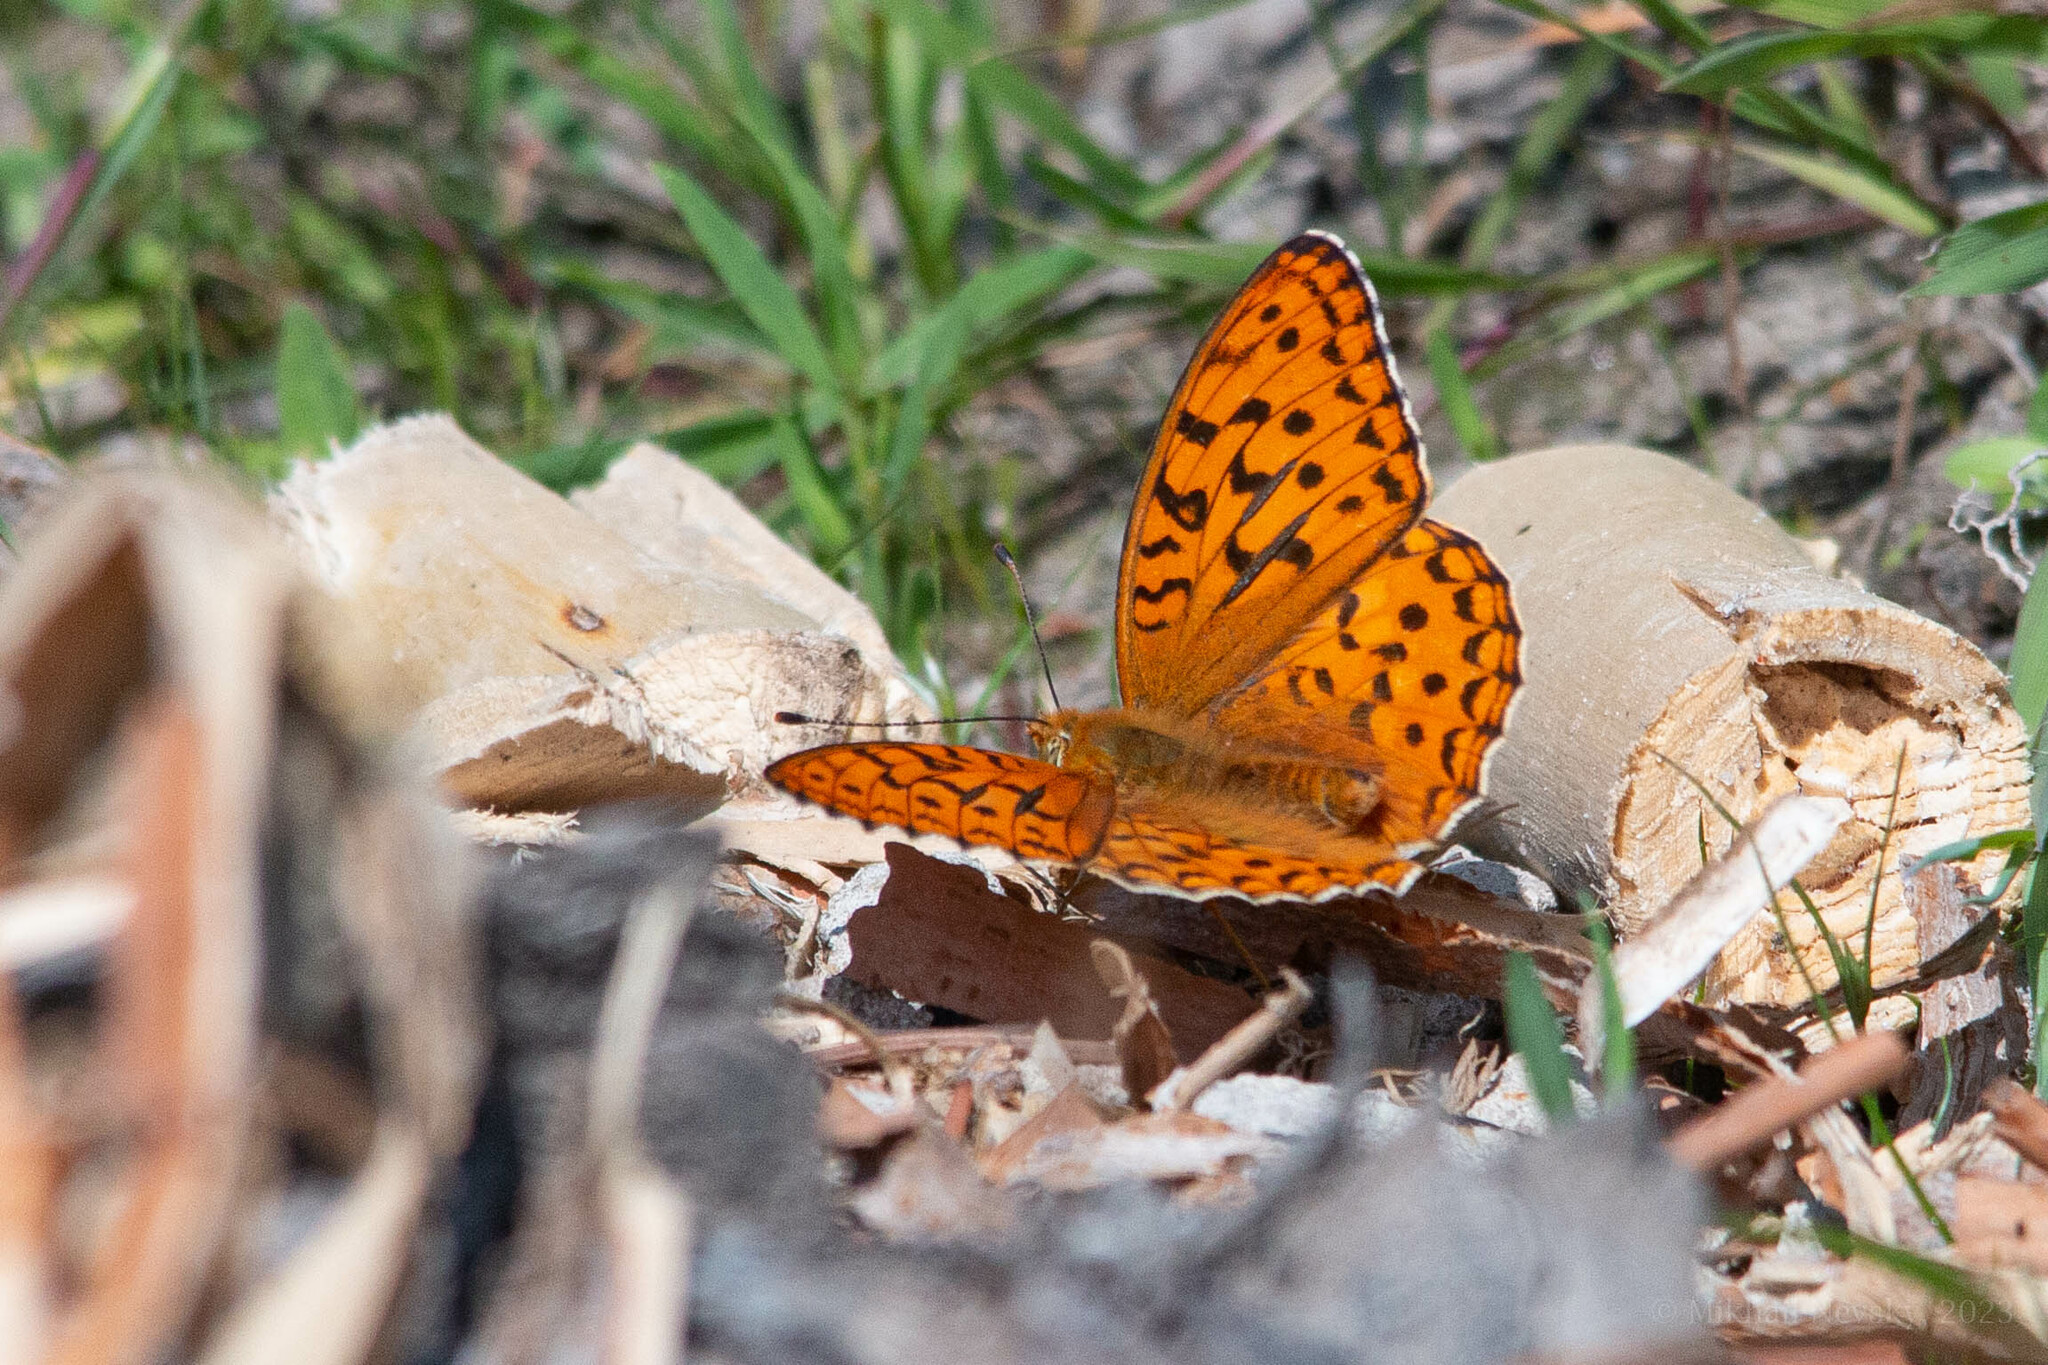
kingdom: Animalia
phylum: Arthropoda
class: Insecta
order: Lepidoptera
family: Nymphalidae
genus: Fabriciana
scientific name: Fabriciana adippe
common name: High brown fritillary
